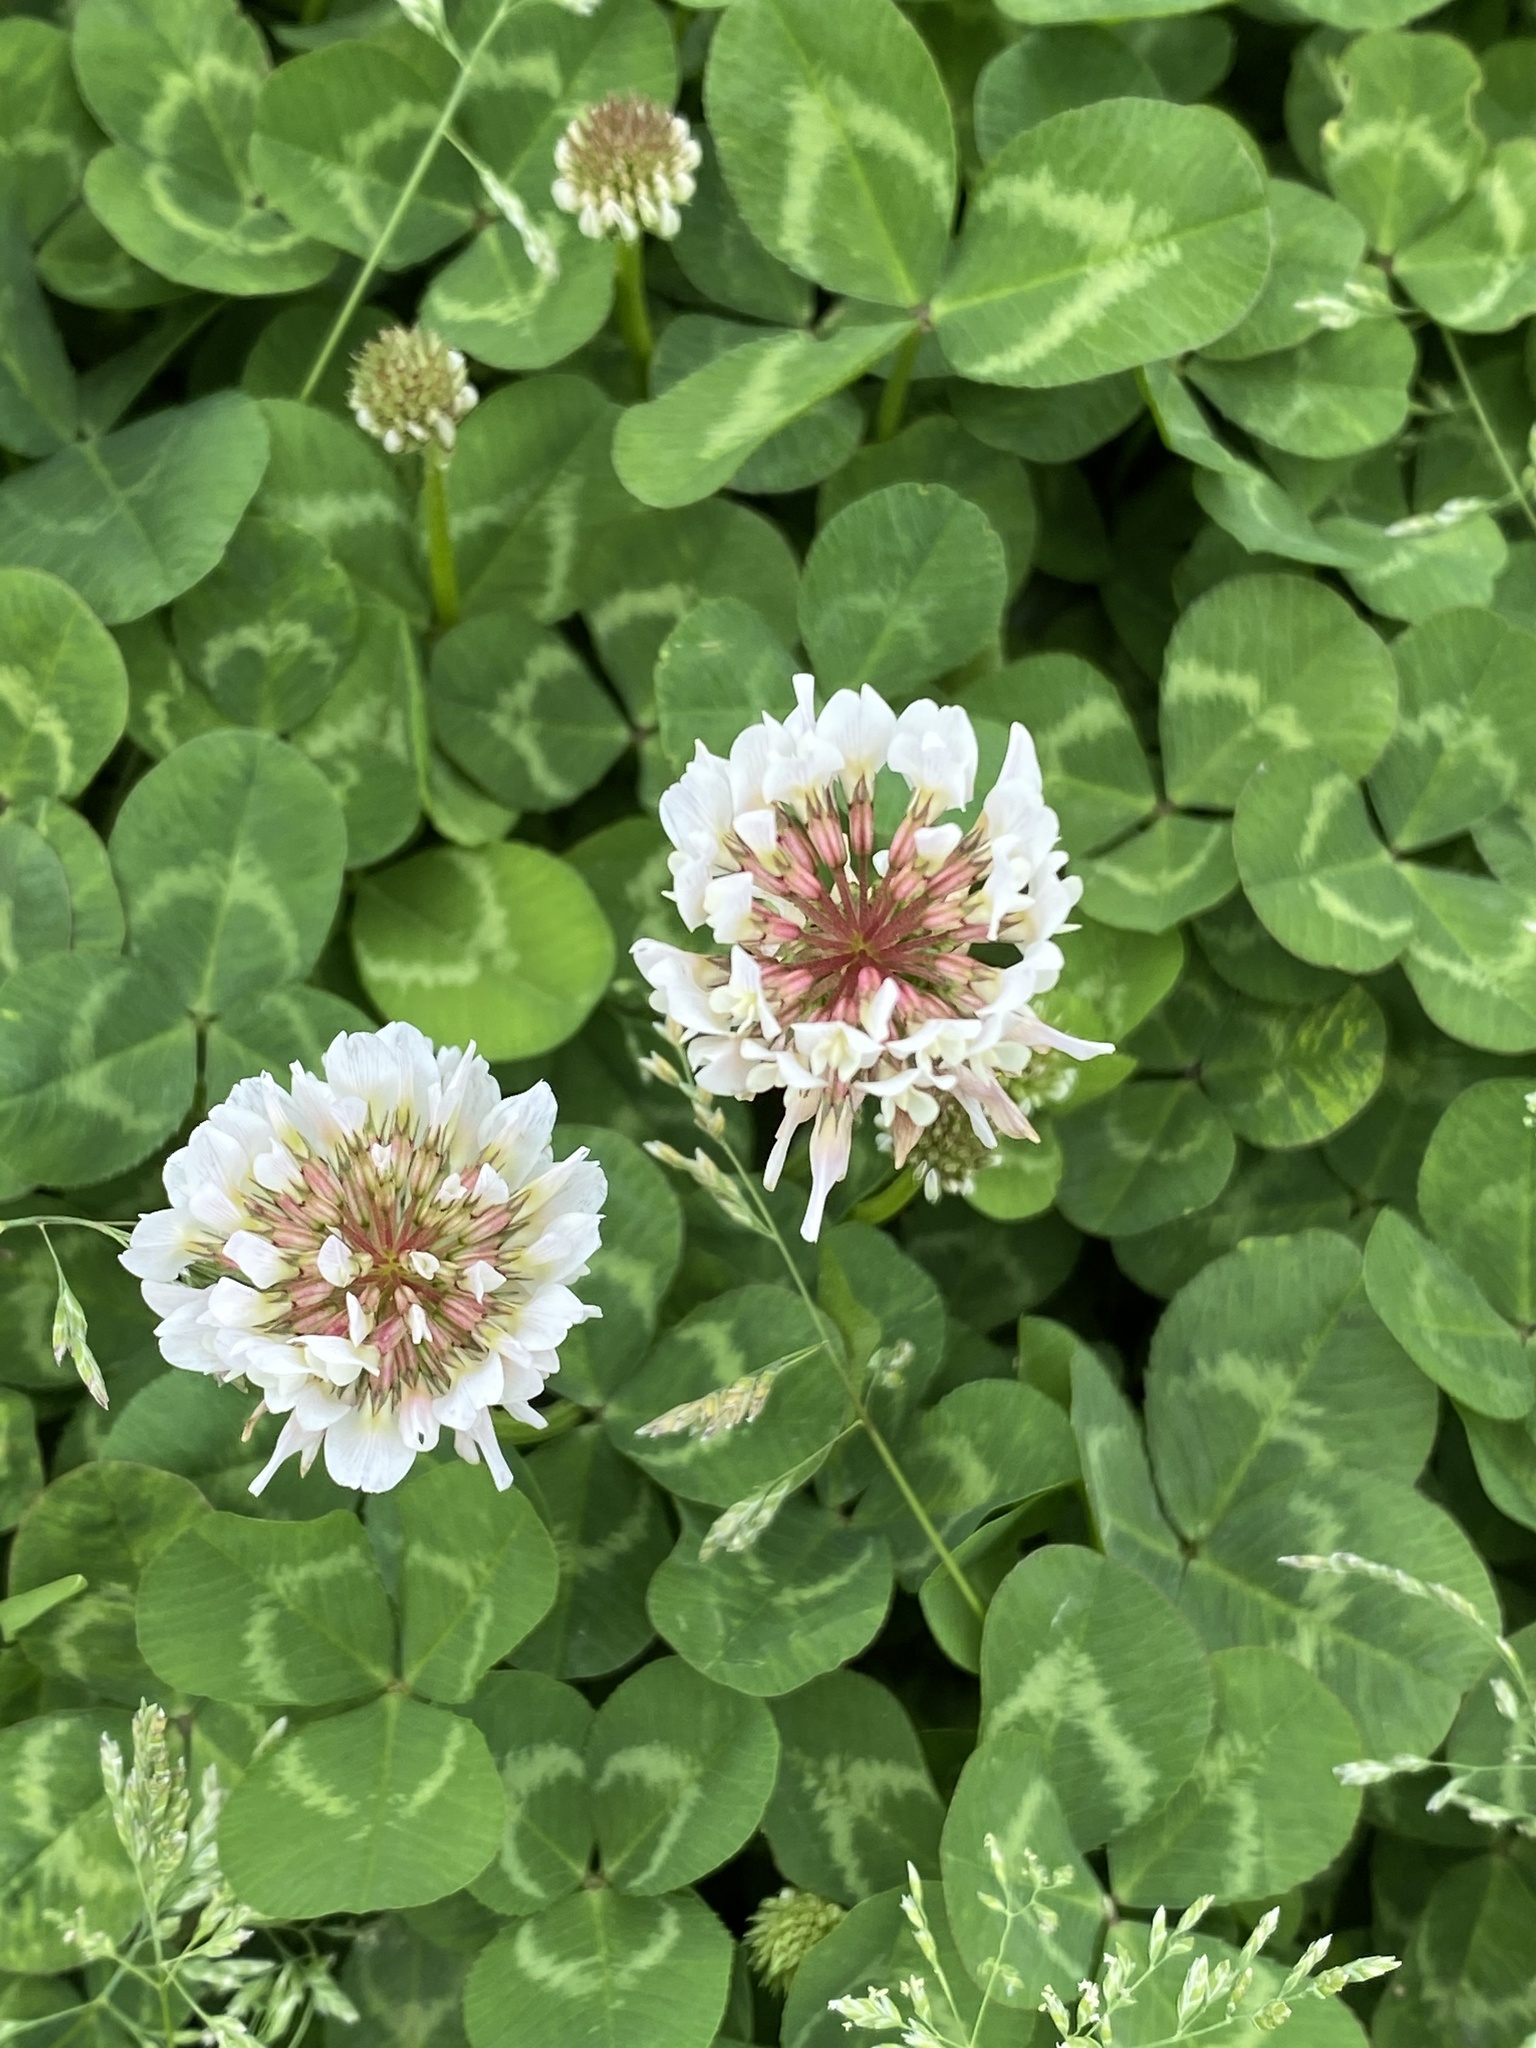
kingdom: Plantae
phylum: Tracheophyta
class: Magnoliopsida
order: Fabales
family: Fabaceae
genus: Trifolium
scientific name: Trifolium repens
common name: White clover
